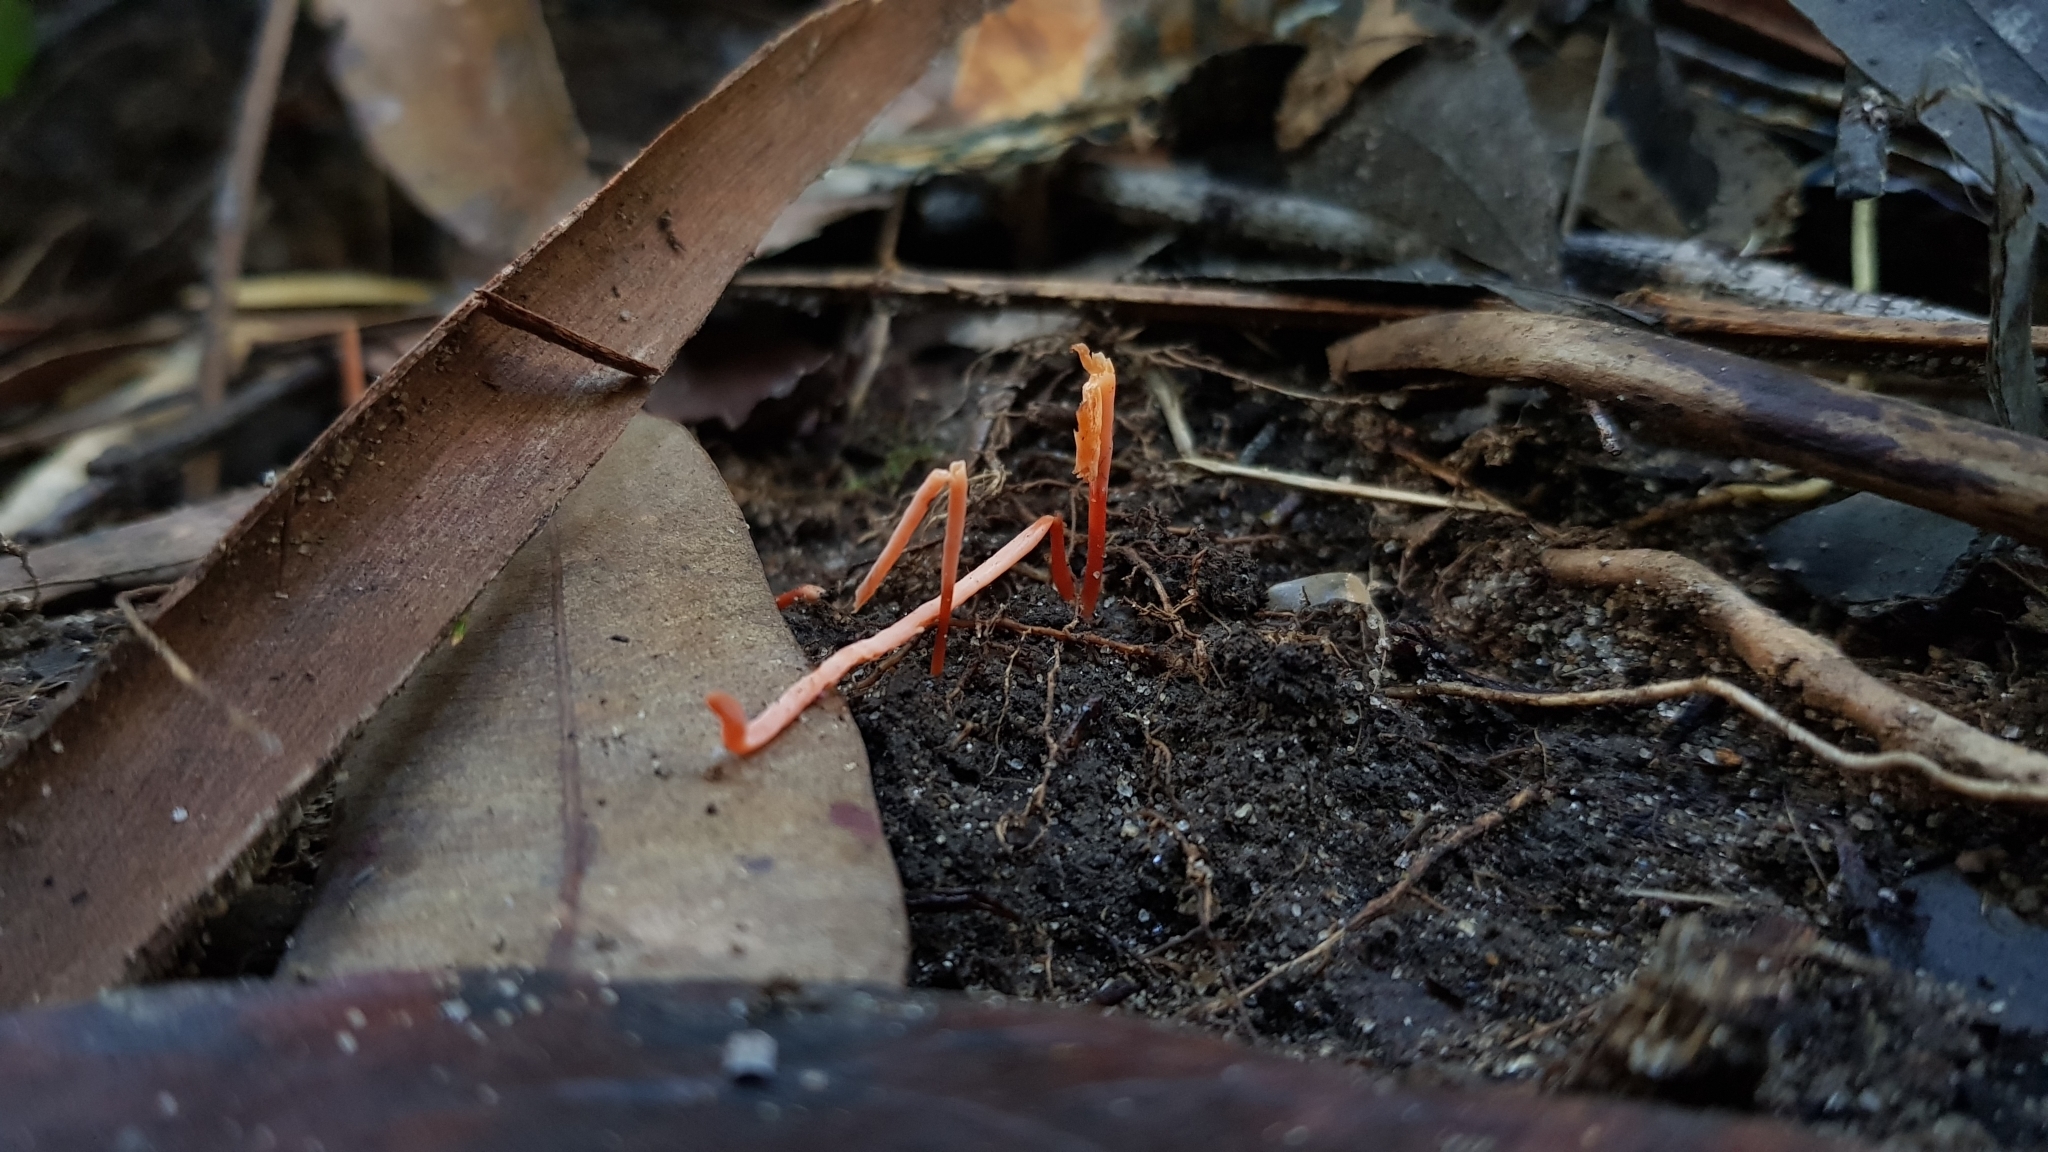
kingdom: Fungi
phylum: Basidiomycota
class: Agaricomycetes
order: Agaricales
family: Clavariaceae
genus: Clavulinopsis
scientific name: Clavulinopsis corallinorosacea
